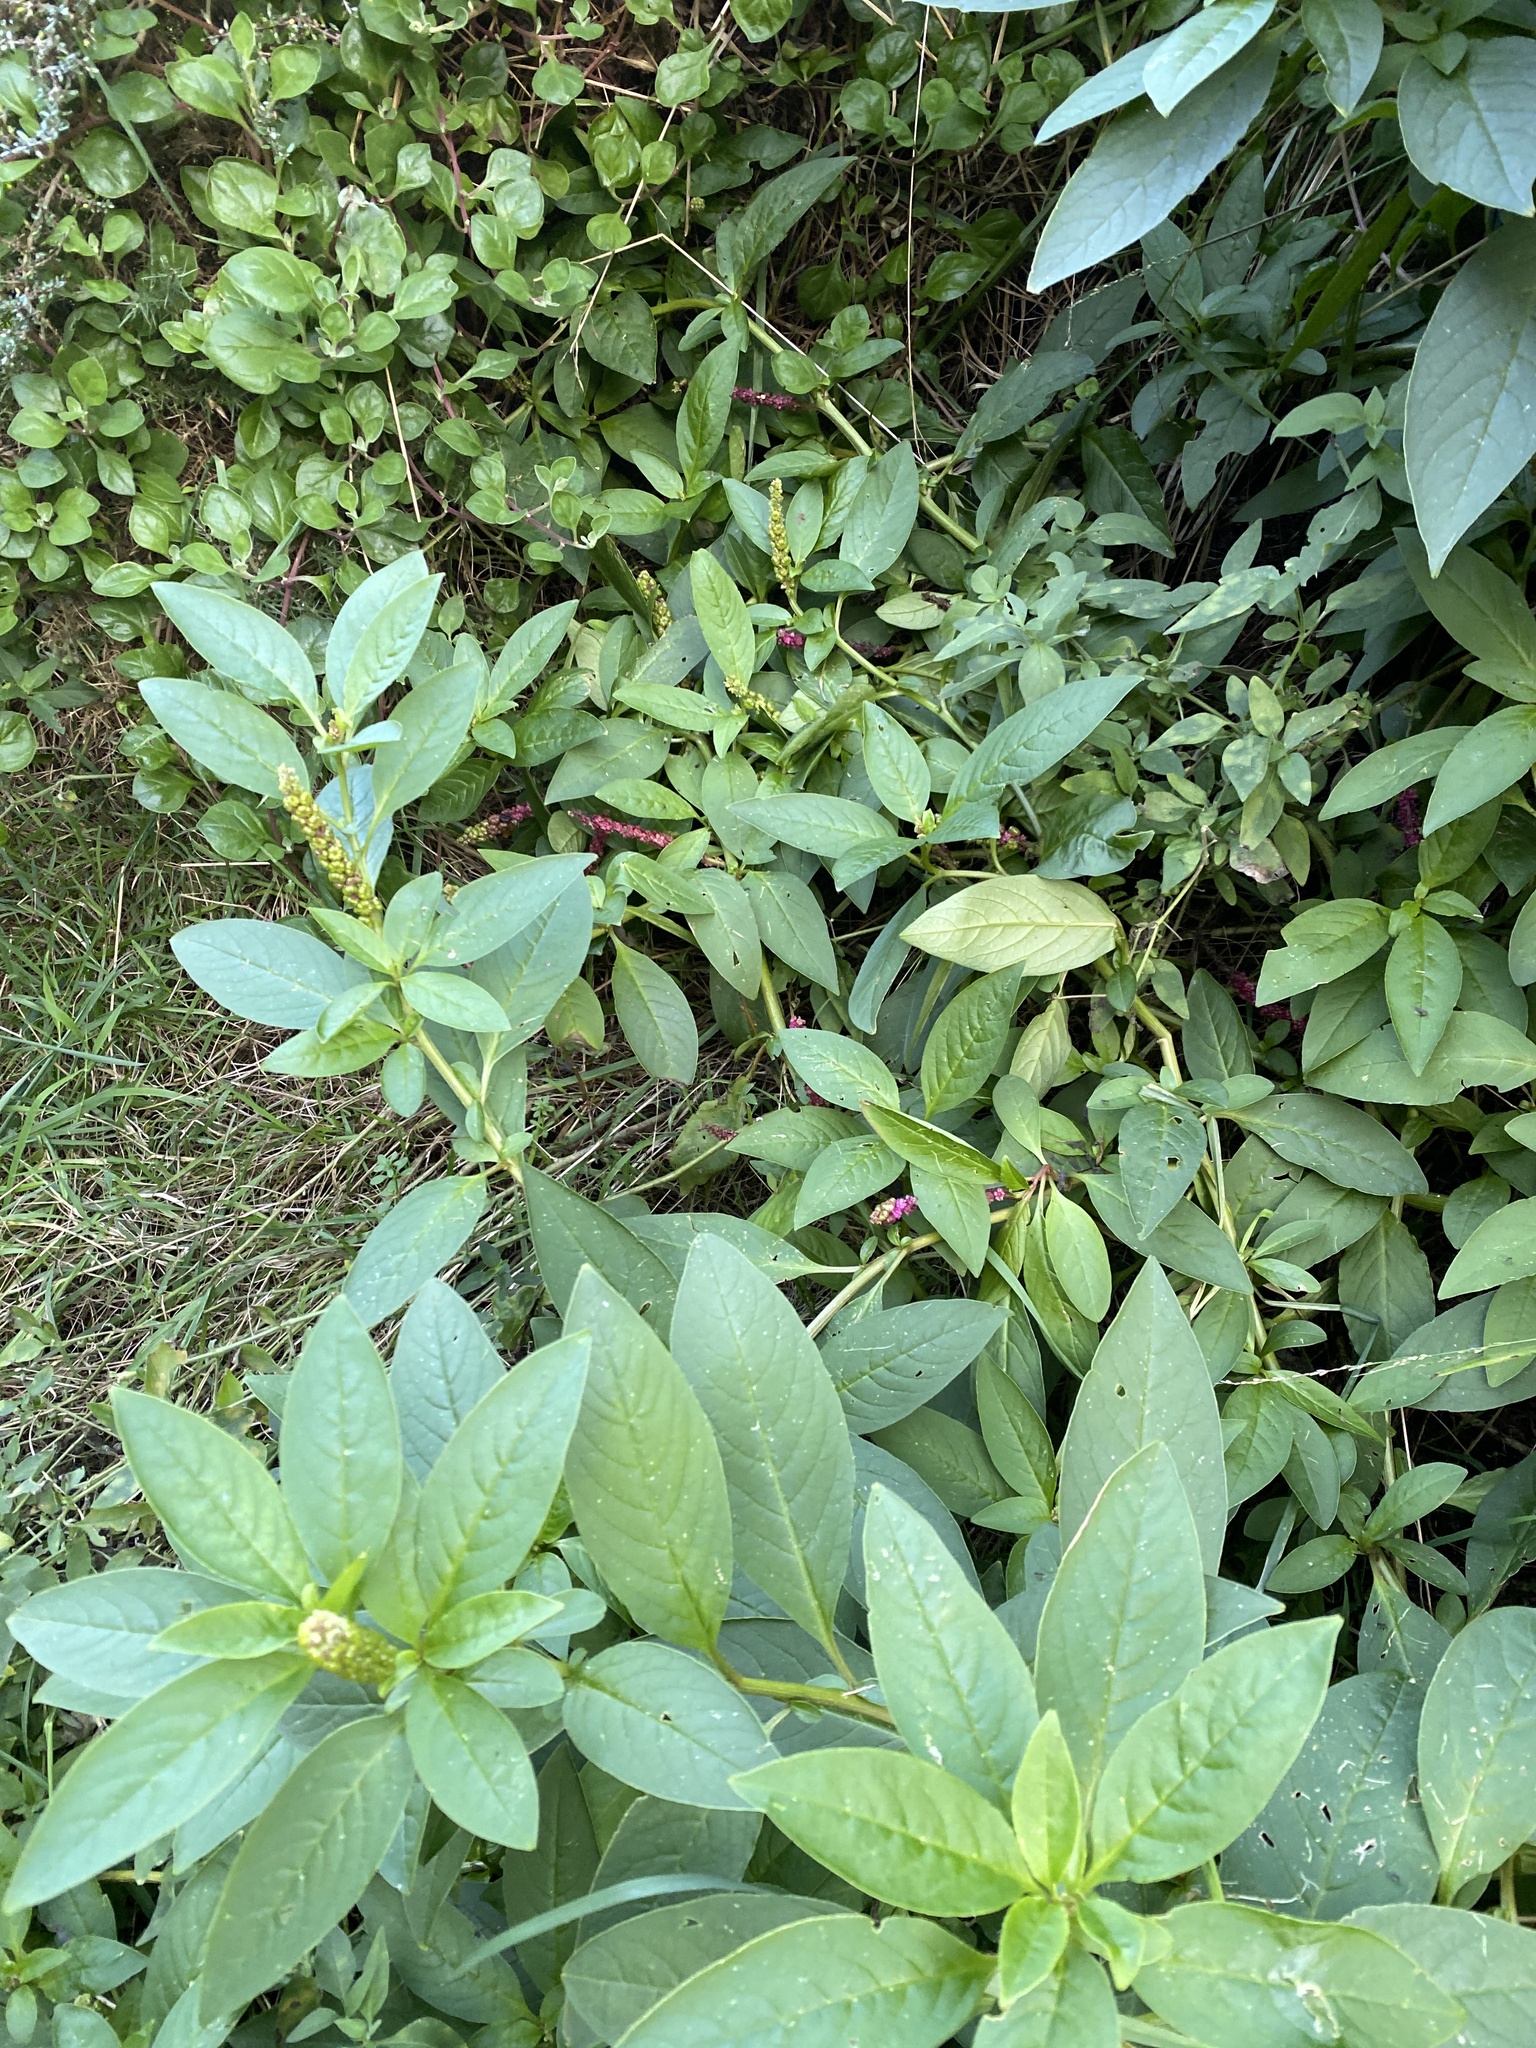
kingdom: Plantae
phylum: Tracheophyta
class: Magnoliopsida
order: Caryophyllales
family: Phytolaccaceae
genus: Phytolacca
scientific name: Phytolacca icosandra
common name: Button pokeweed
